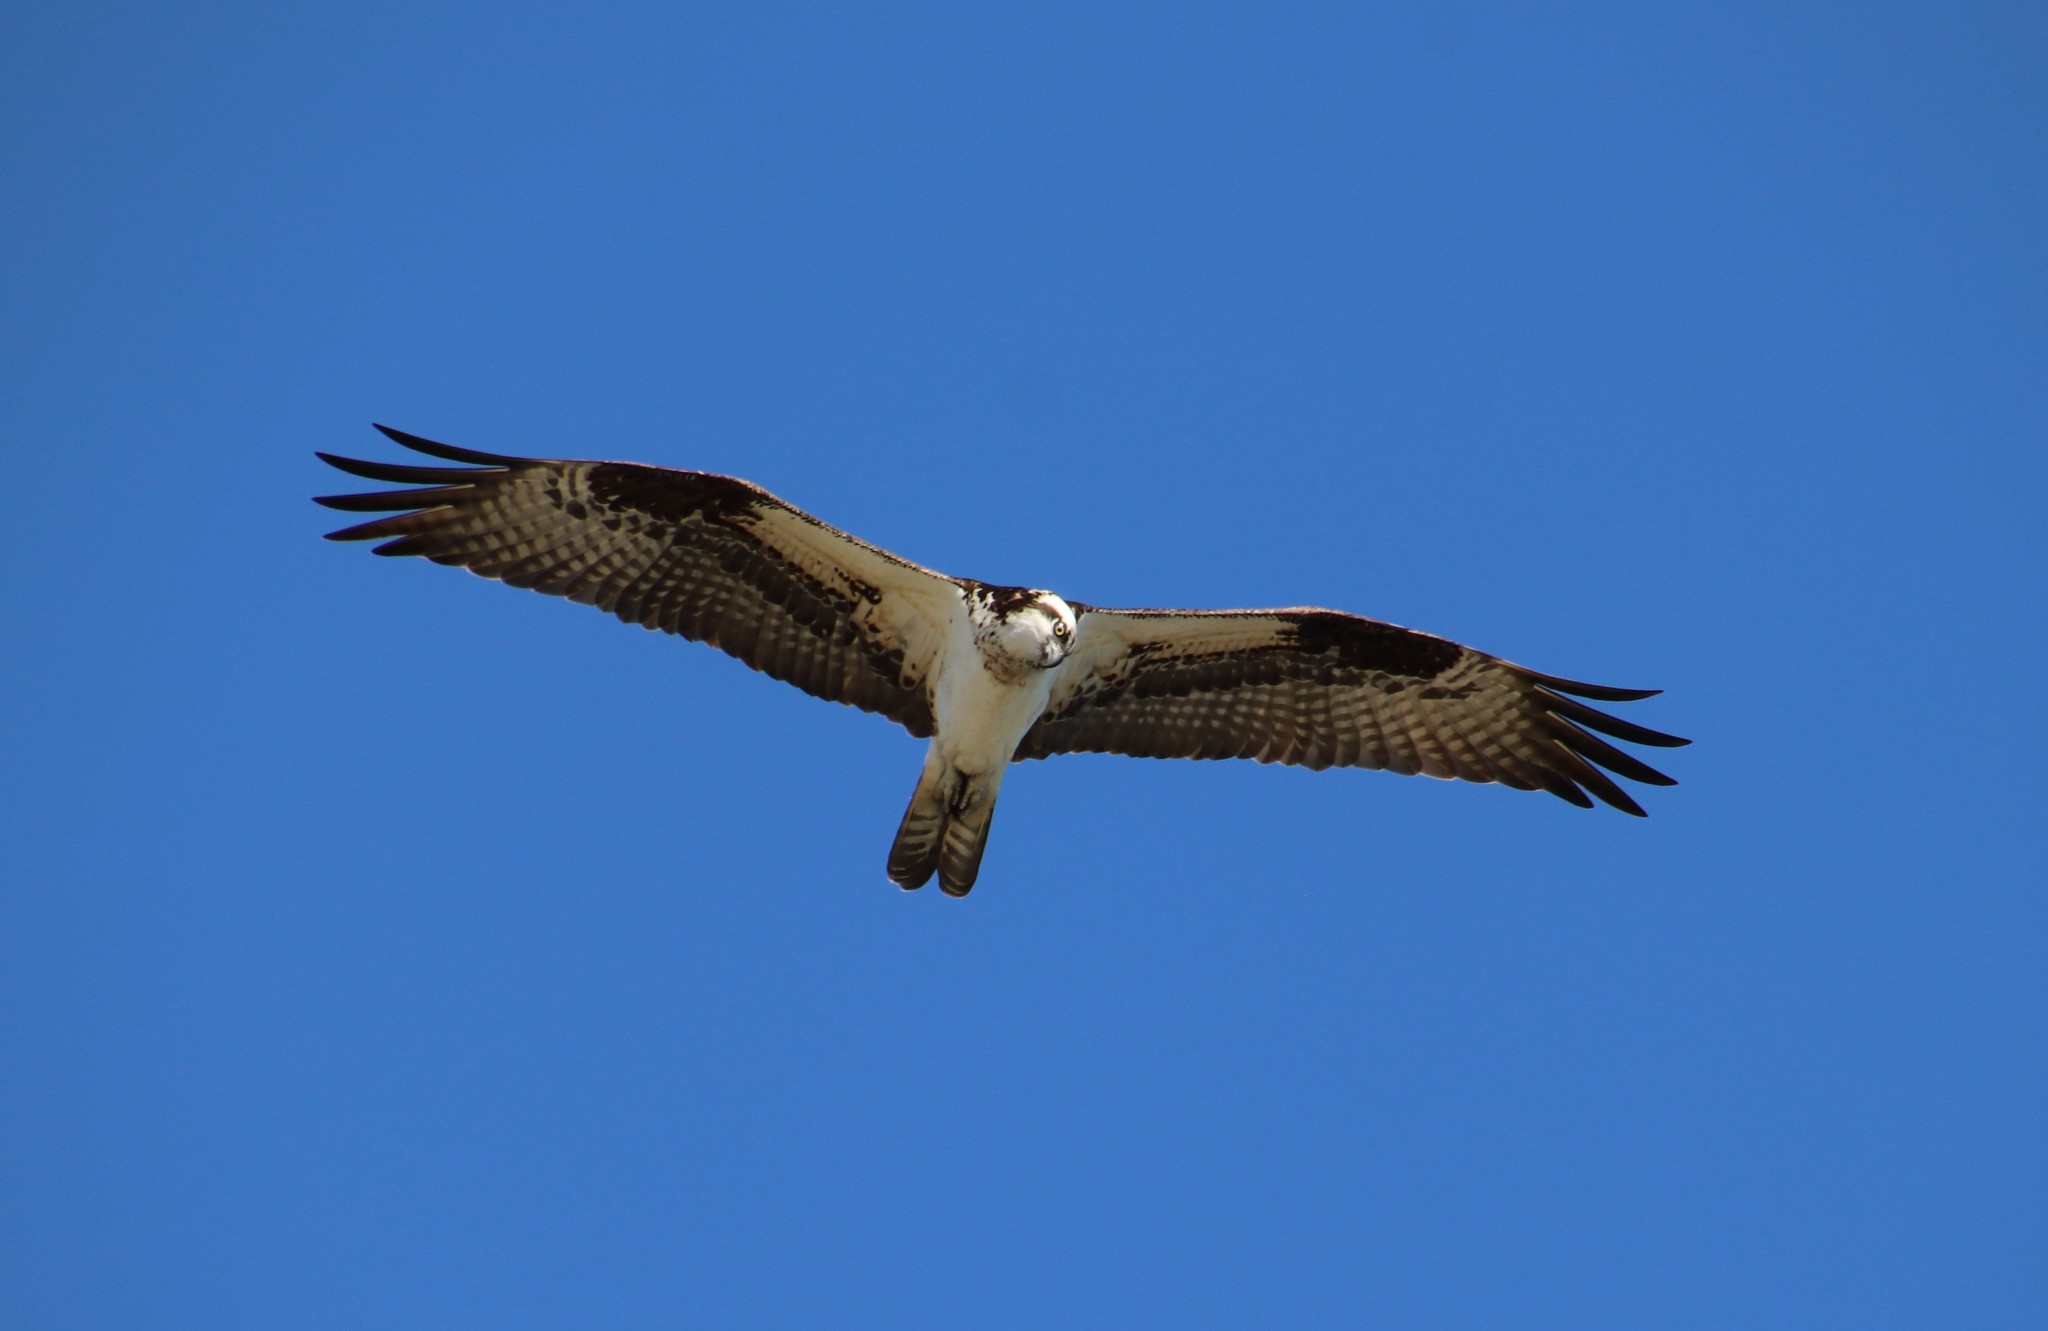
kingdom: Animalia
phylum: Chordata
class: Aves
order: Accipitriformes
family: Pandionidae
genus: Pandion
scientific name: Pandion haliaetus
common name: Osprey
